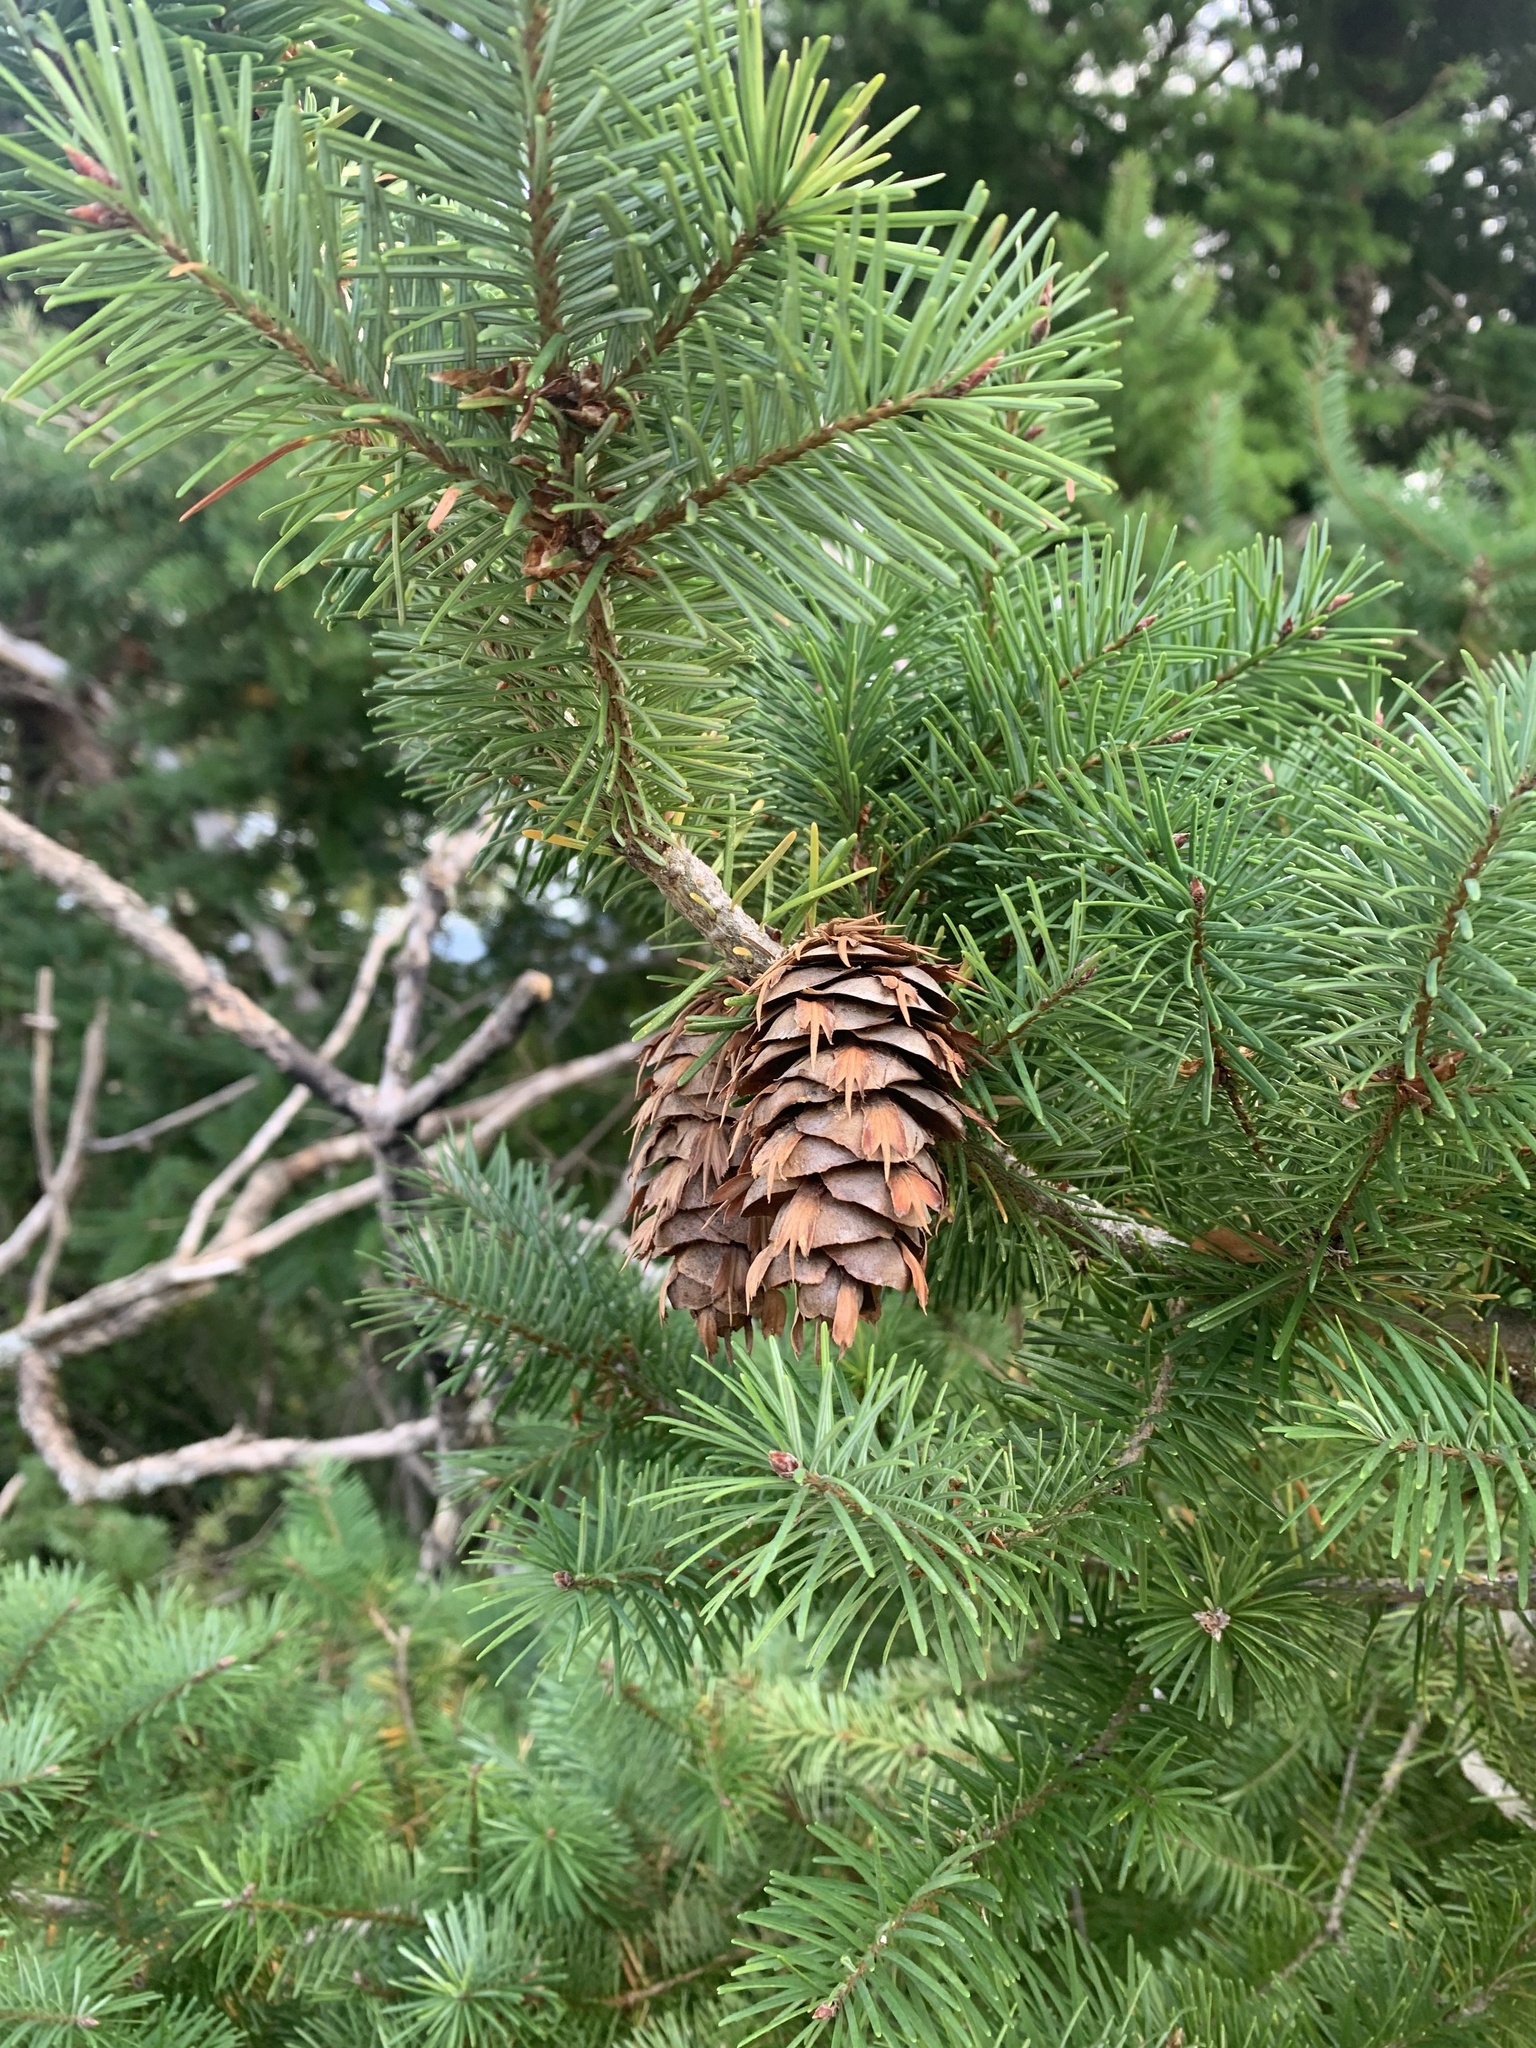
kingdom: Plantae
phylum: Tracheophyta
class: Pinopsida
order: Pinales
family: Pinaceae
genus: Pseudotsuga
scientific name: Pseudotsuga menziesii
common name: Douglas fir
